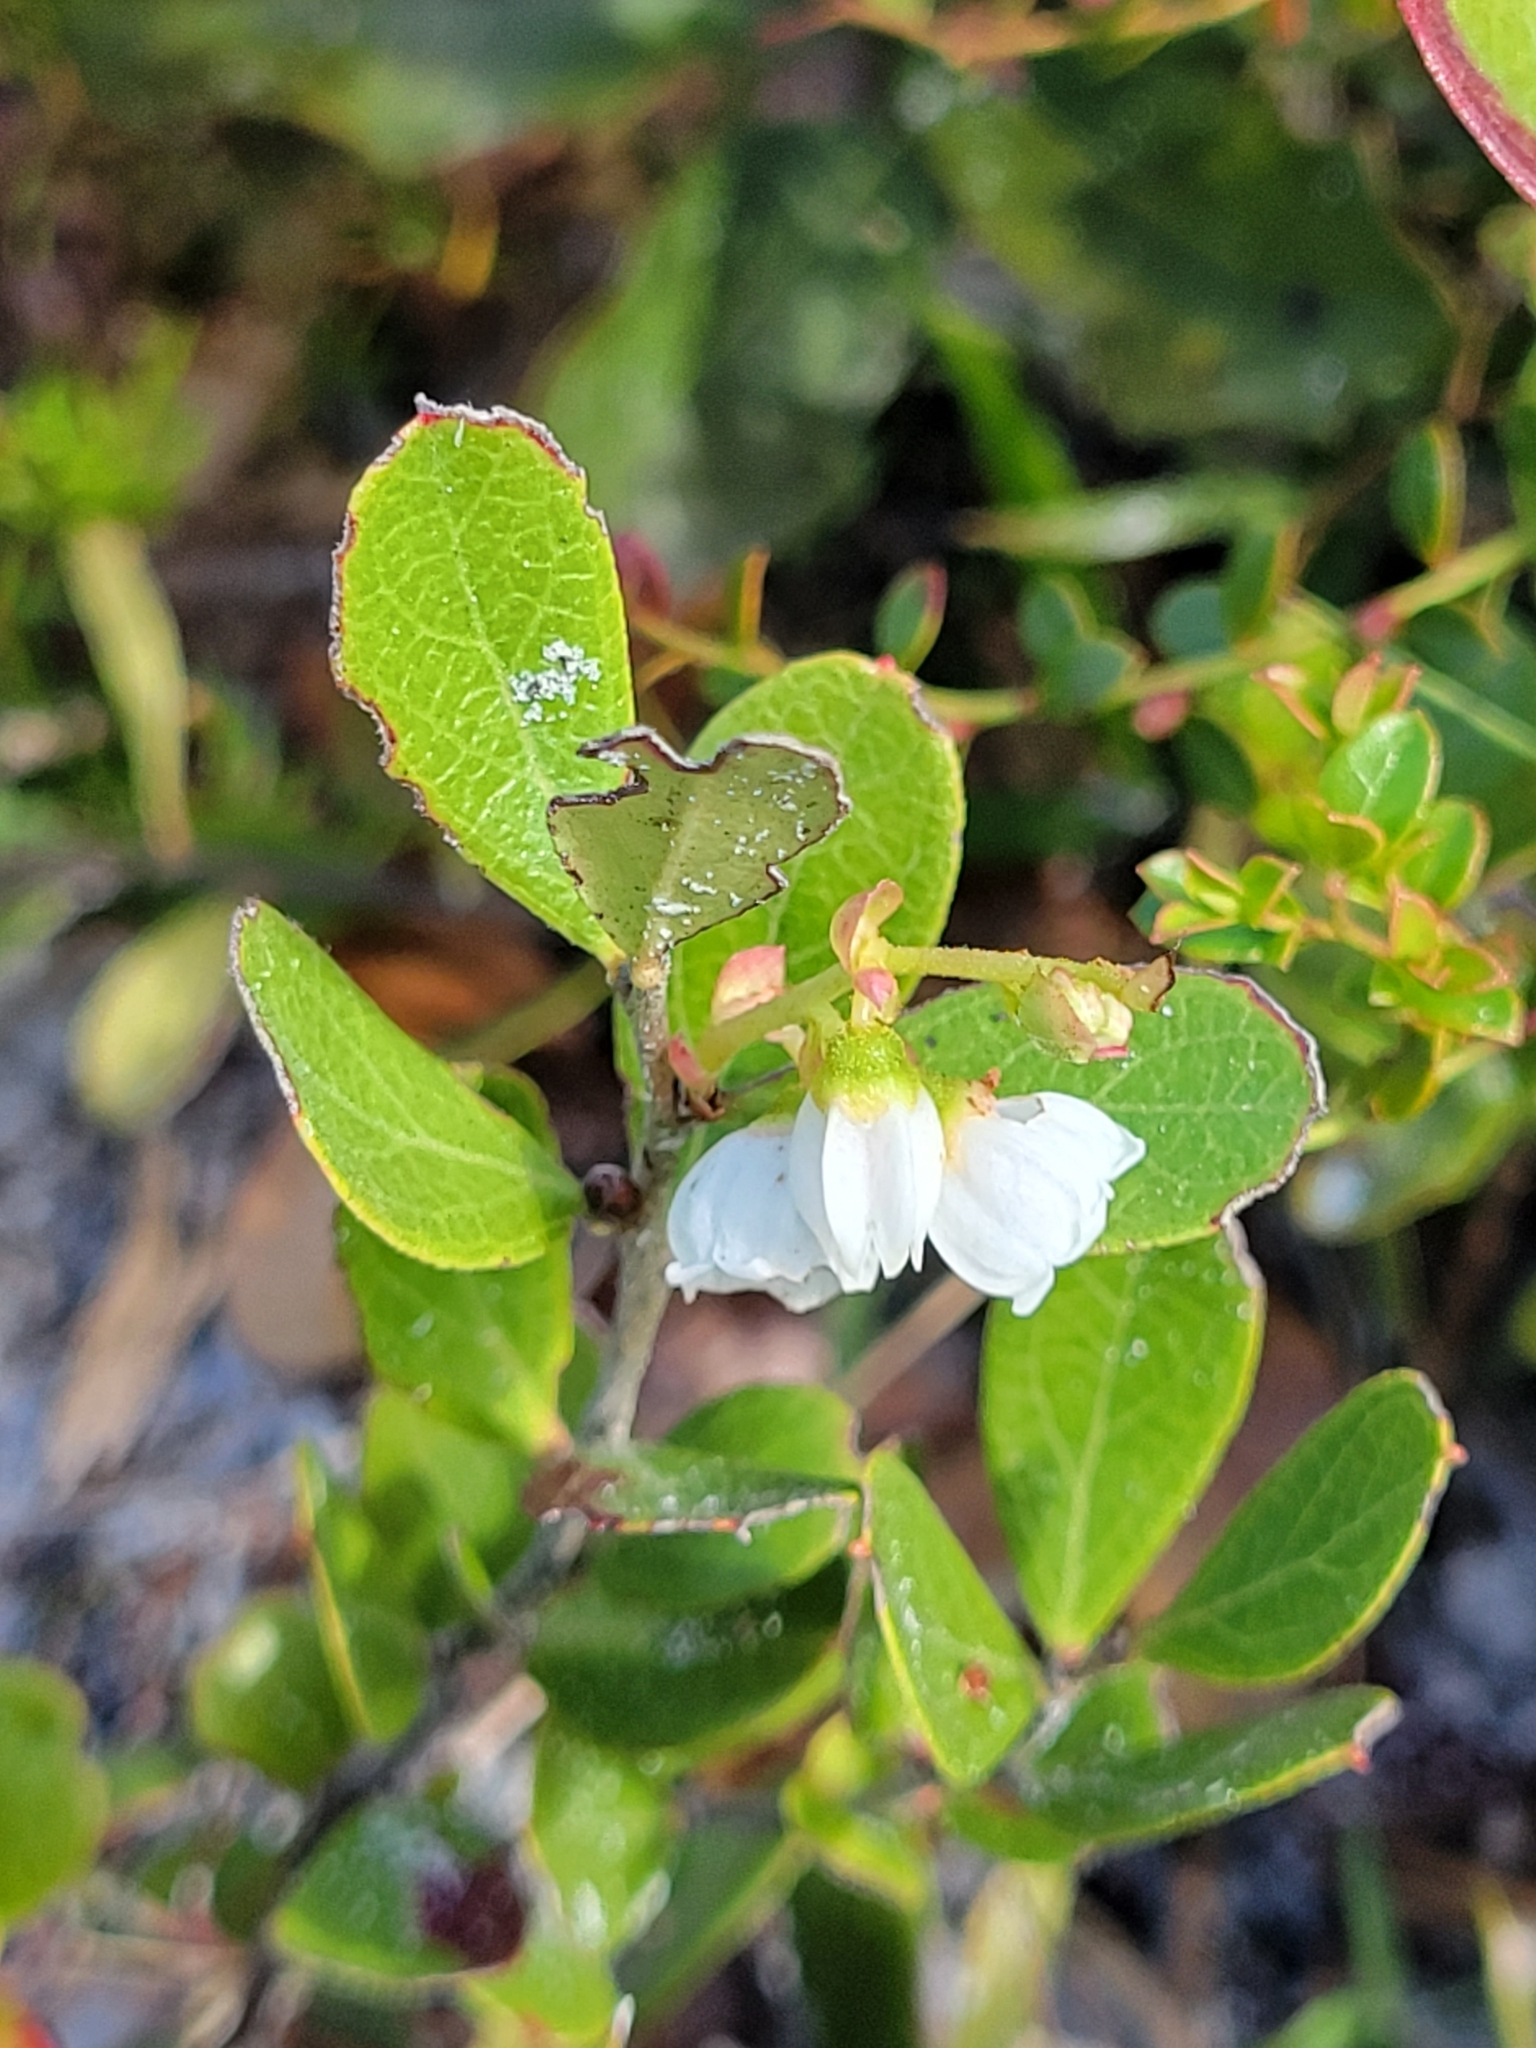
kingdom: Plantae
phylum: Tracheophyta
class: Magnoliopsida
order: Ericales
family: Ericaceae
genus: Gaylussacia
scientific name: Gaylussacia dumosa
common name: Dwarf huckleberry
